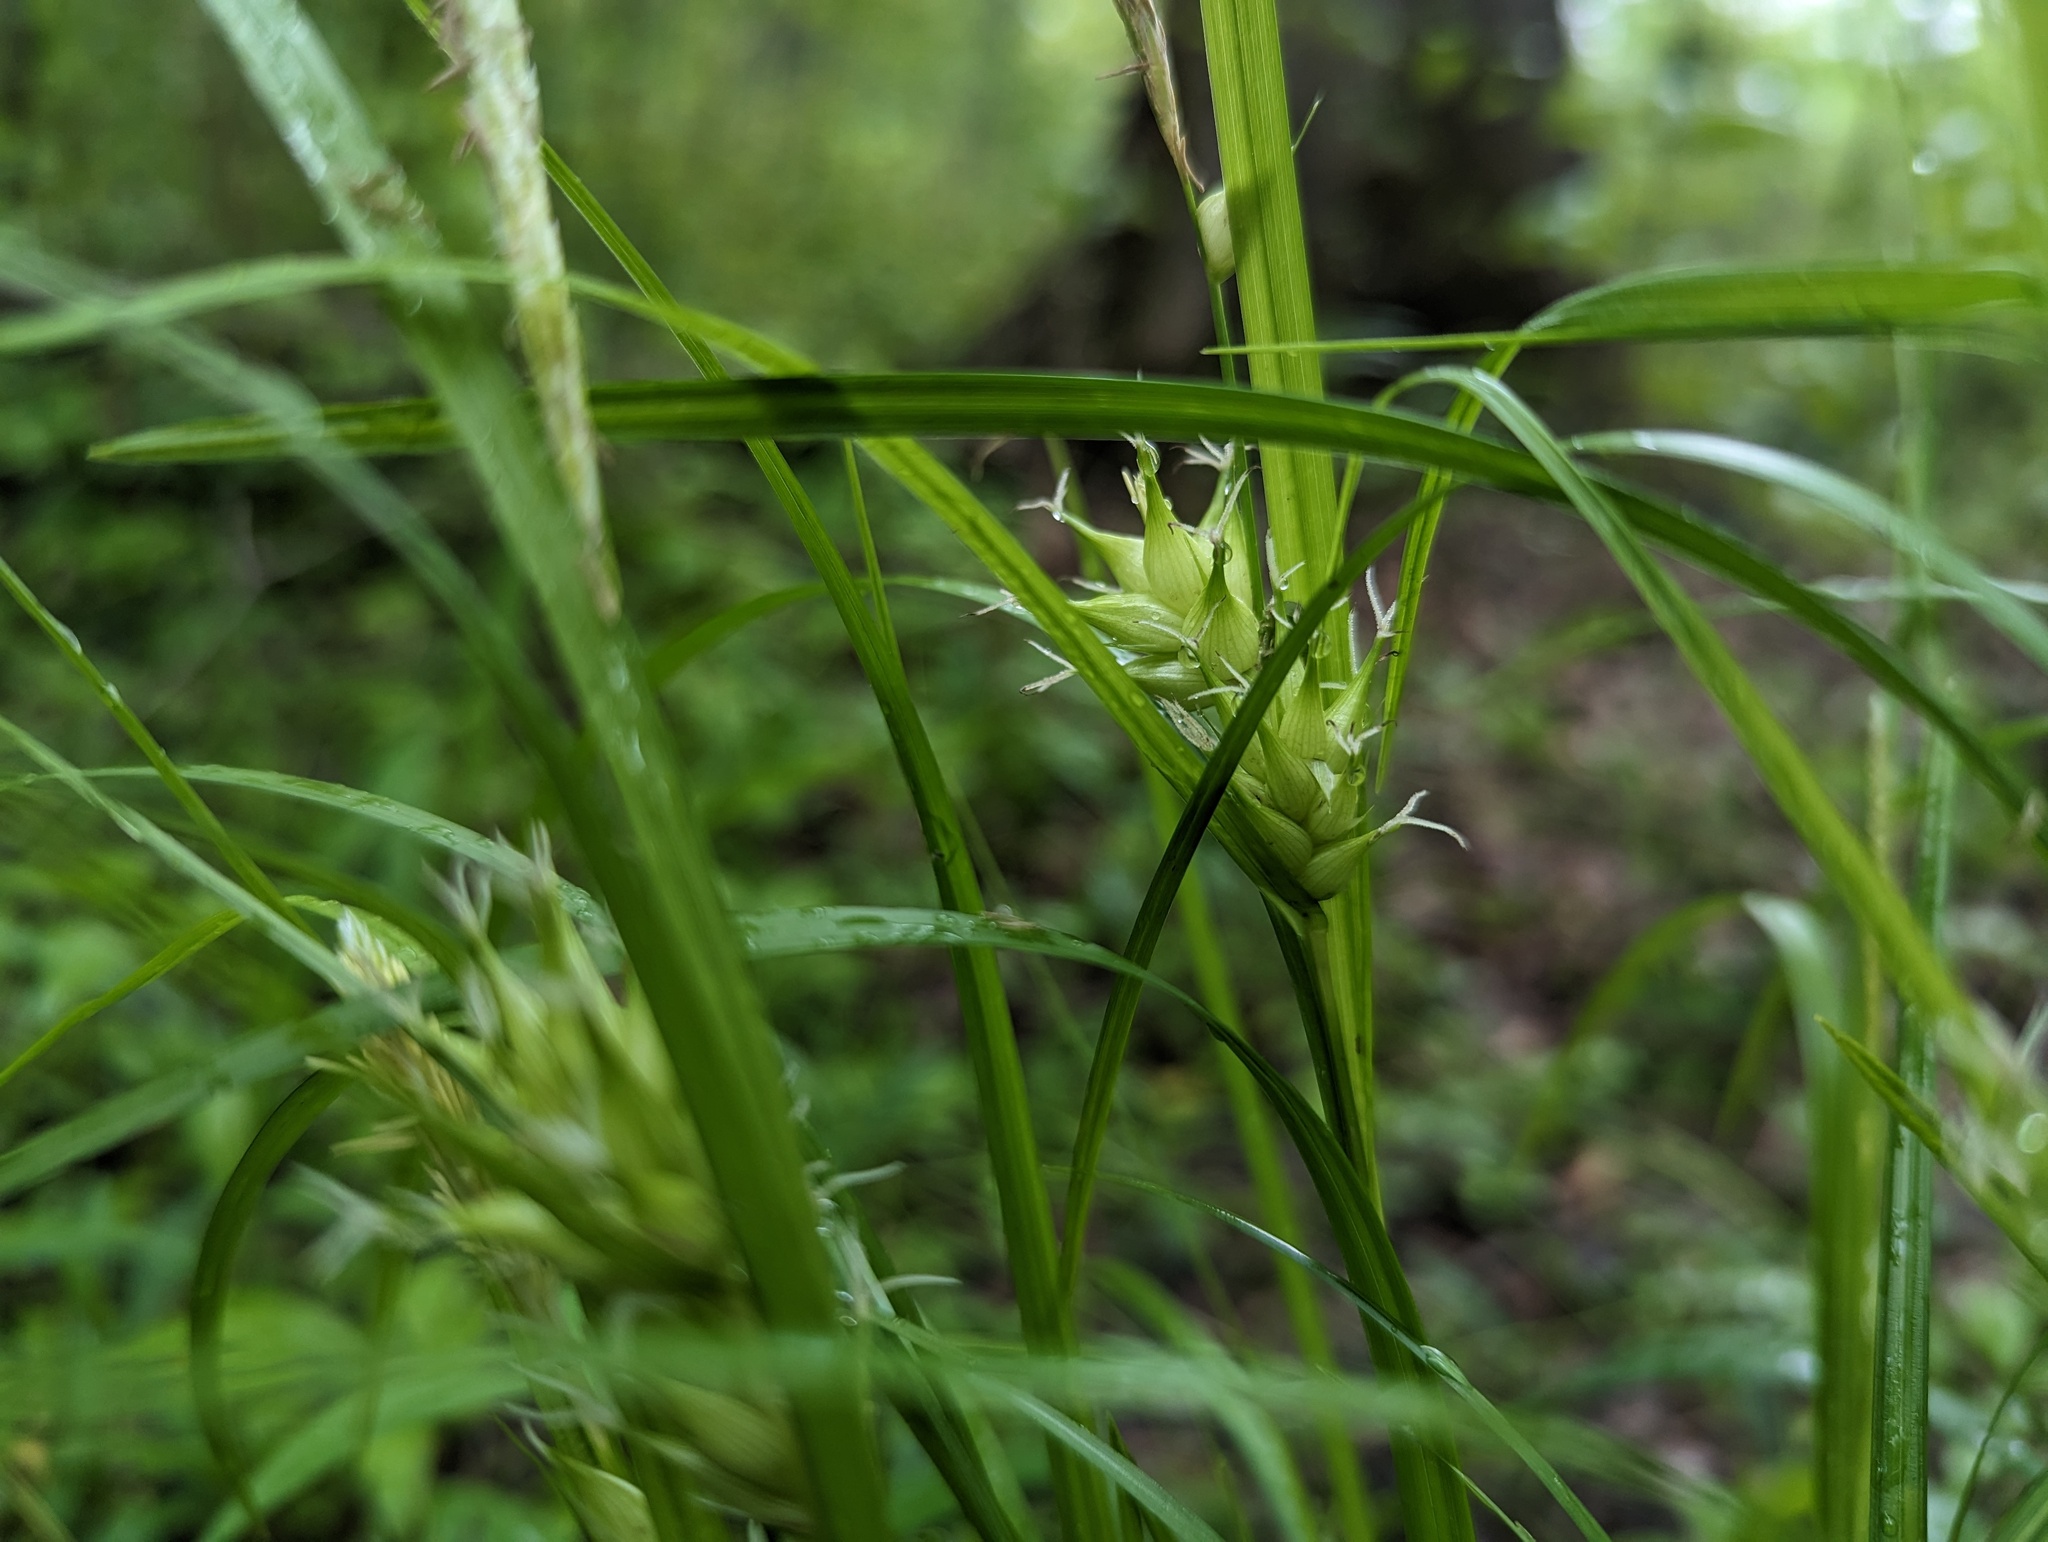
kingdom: Plantae
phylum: Tracheophyta
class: Liliopsida
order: Poales
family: Cyperaceae
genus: Carex
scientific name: Carex intumescens
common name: Greater bladder sedge
